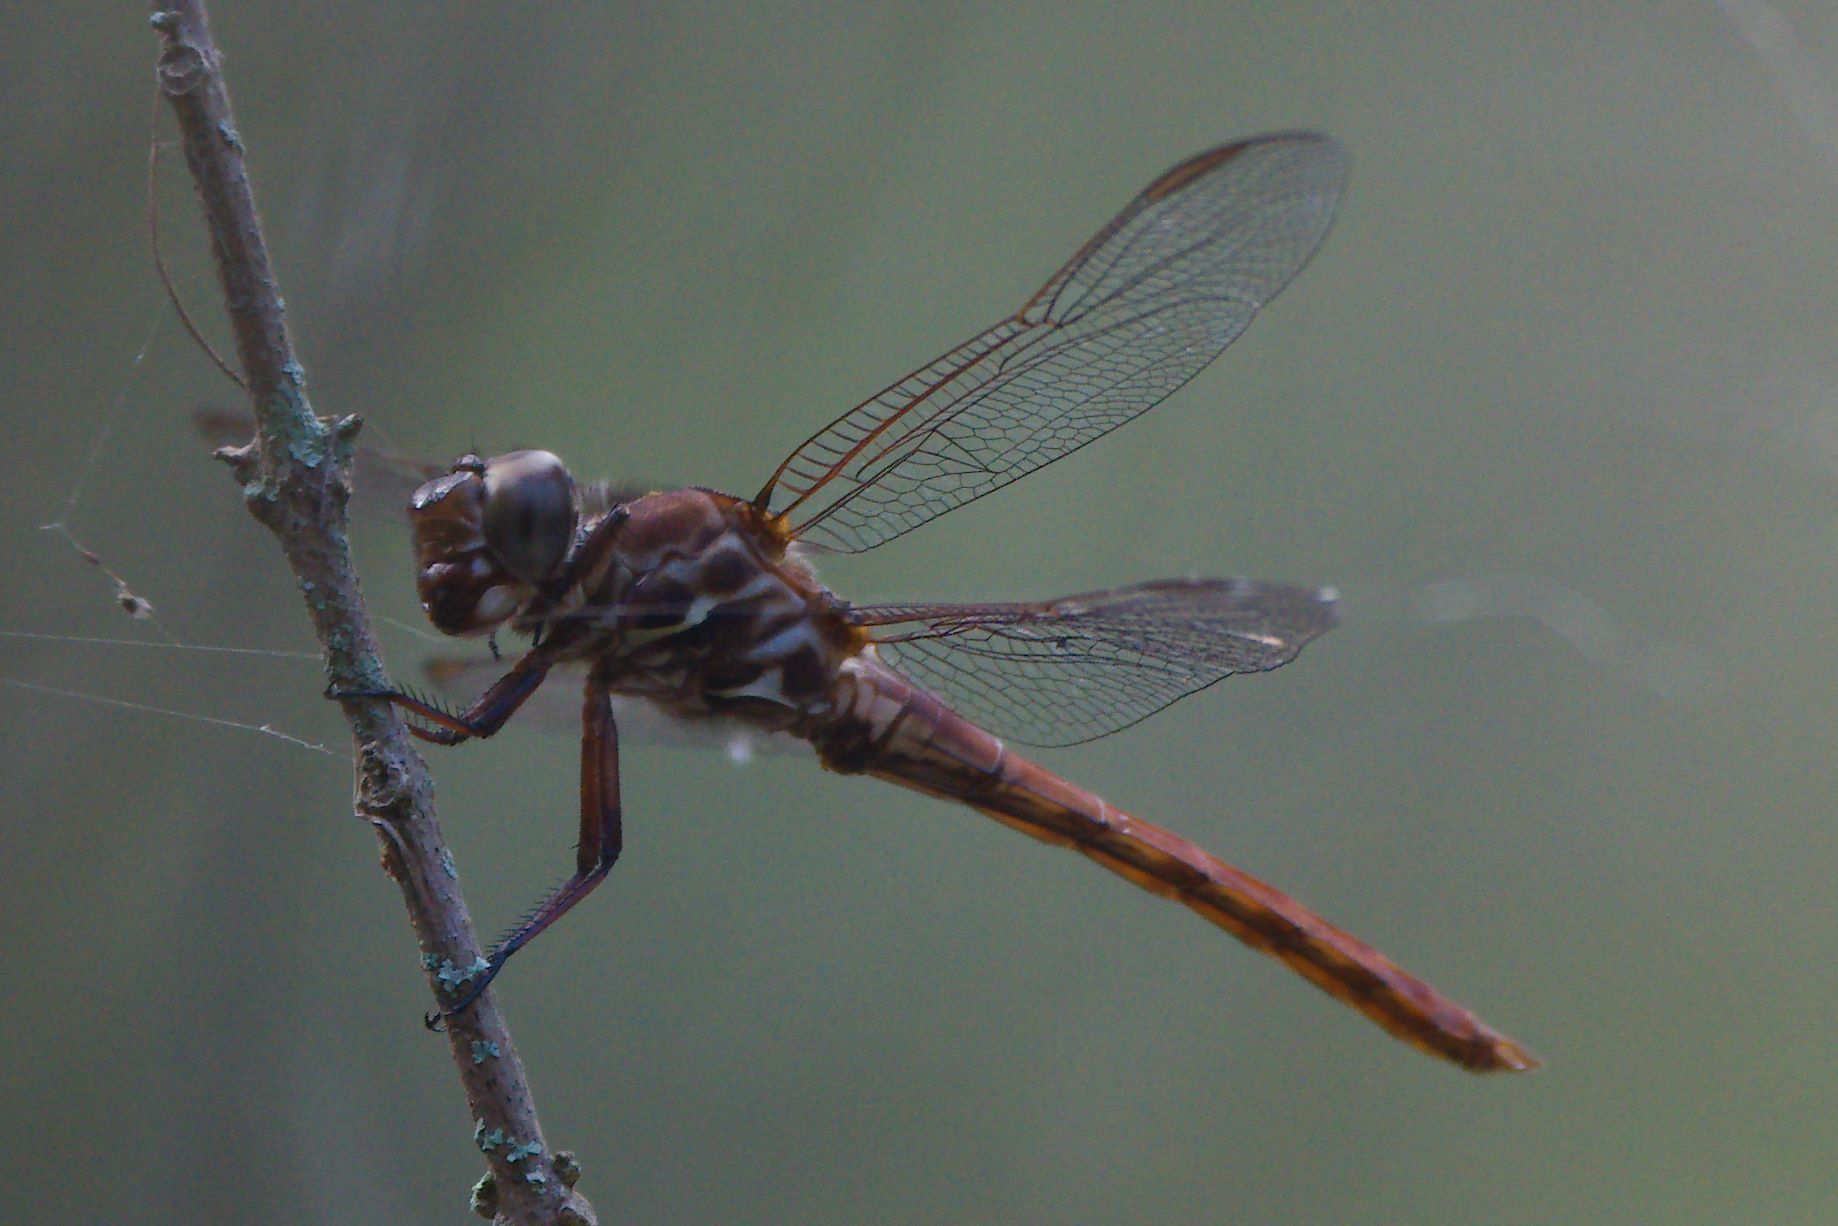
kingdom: Animalia
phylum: Arthropoda
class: Insecta
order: Odonata
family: Libellulidae
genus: Orthemis
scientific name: Orthemis ferruginea
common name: Roseate skimmer
